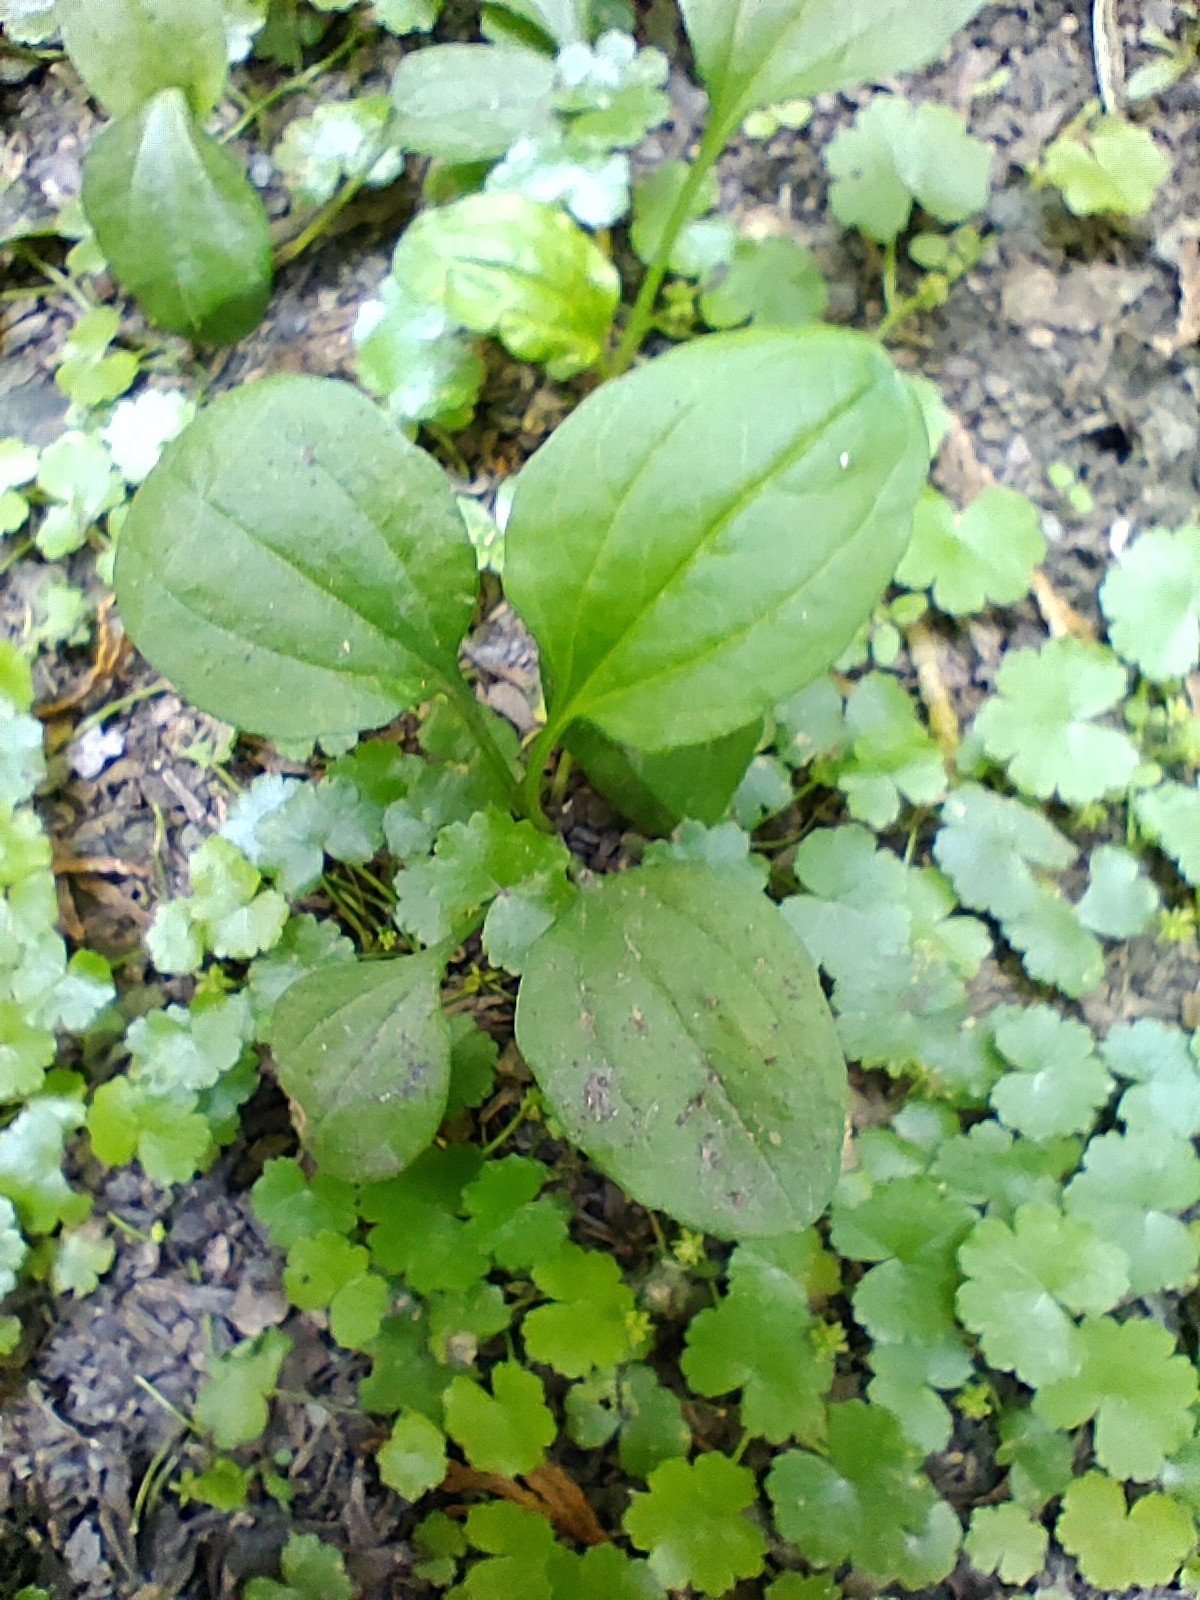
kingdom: Plantae
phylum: Tracheophyta
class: Magnoliopsida
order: Lamiales
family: Plantaginaceae
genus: Plantago
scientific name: Plantago asiatica
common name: Psyllium
